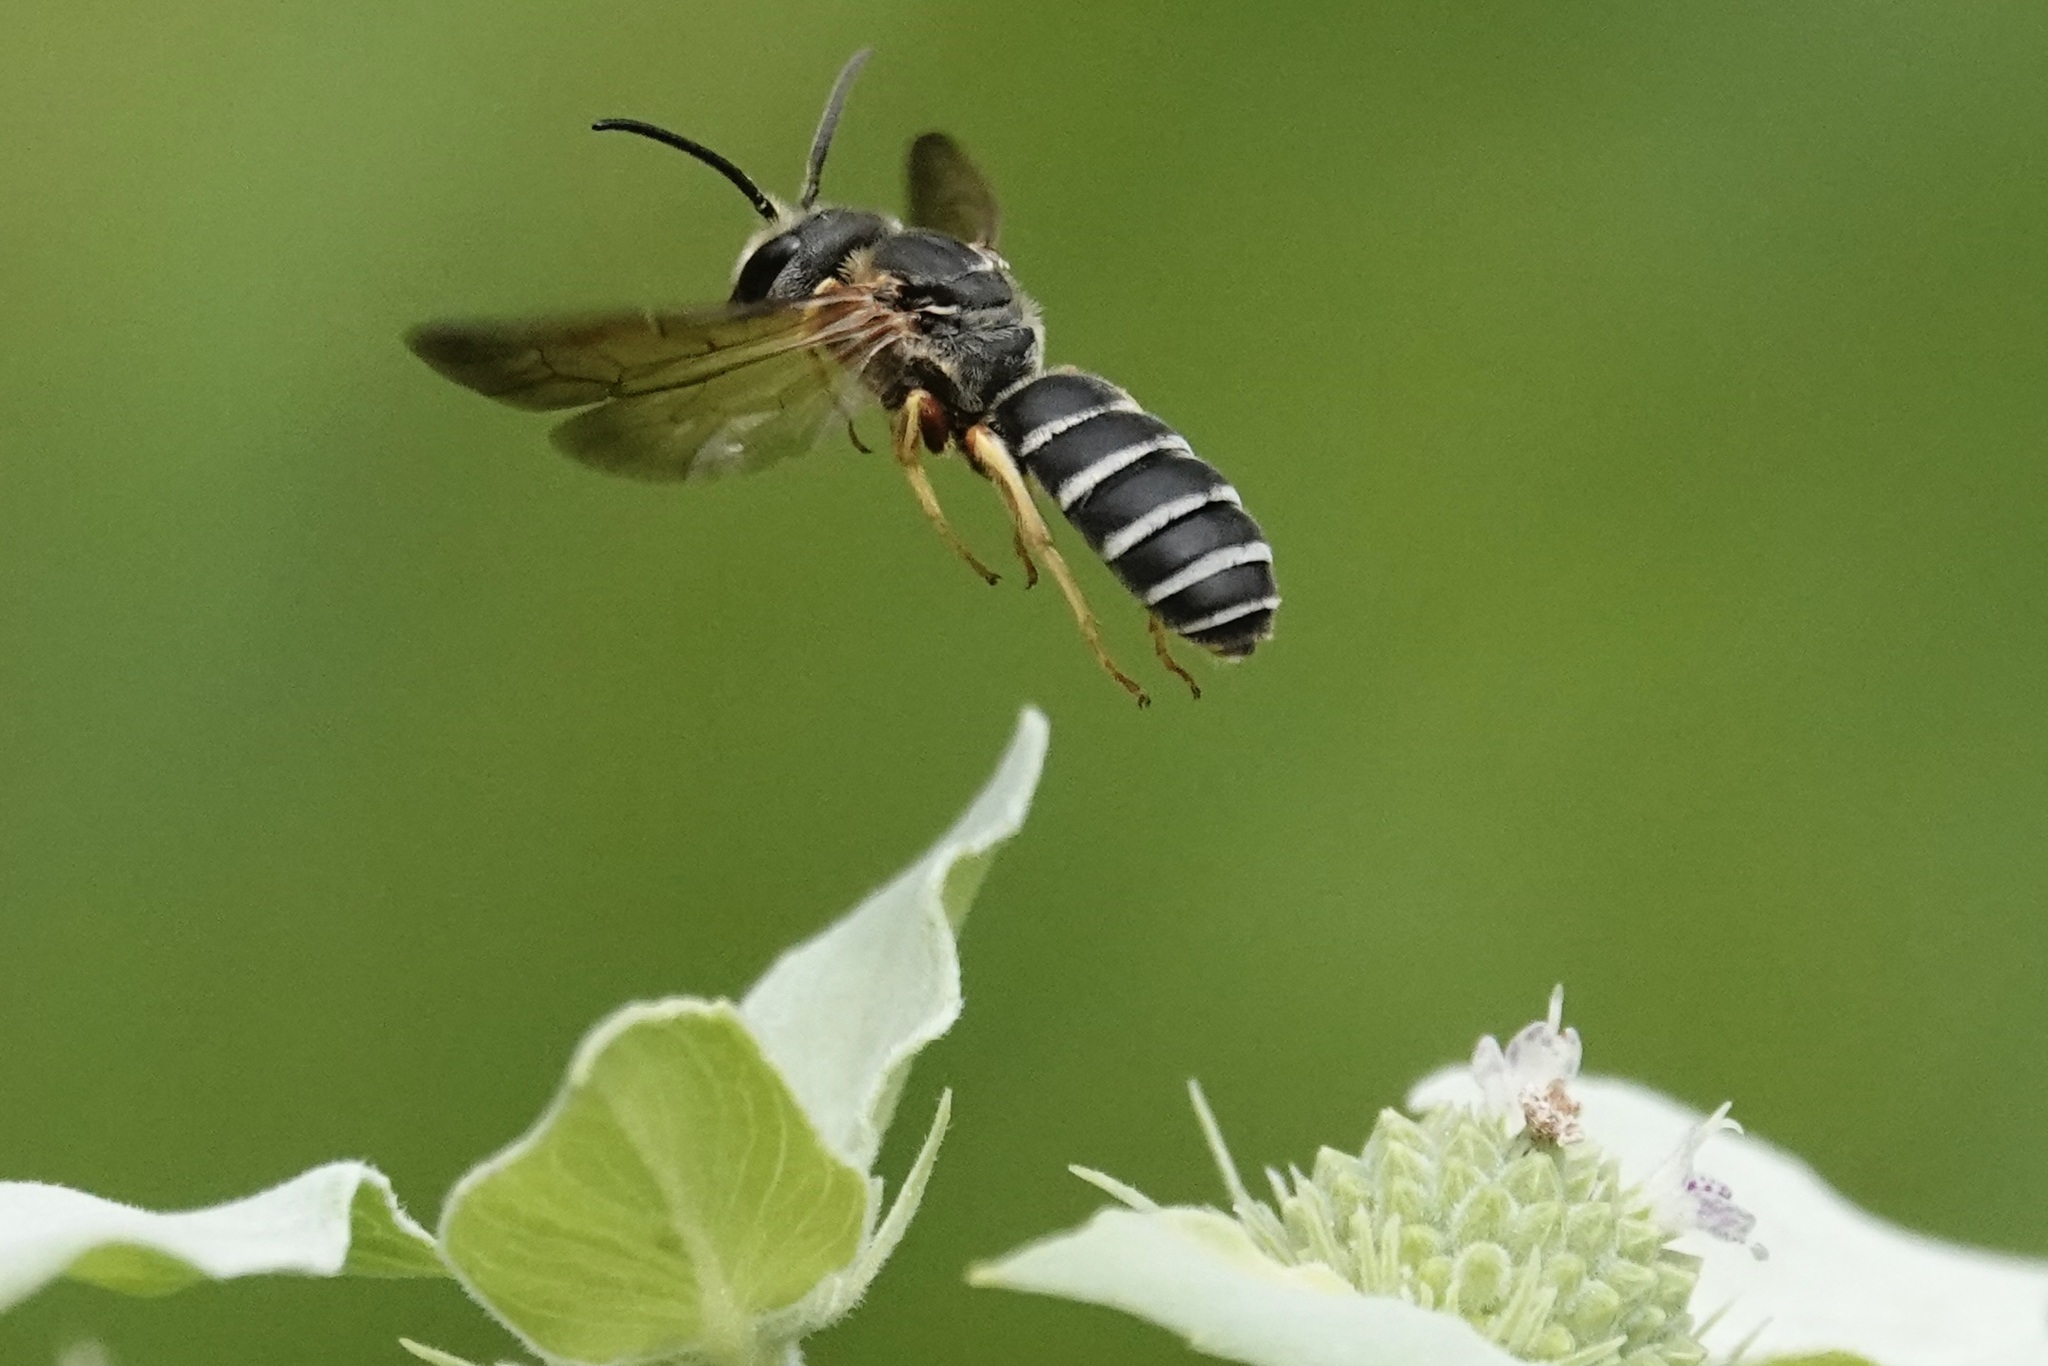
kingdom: Animalia
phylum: Arthropoda
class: Insecta
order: Hymenoptera
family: Halictidae
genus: Halictus
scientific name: Halictus parallelus
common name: Parallel-striped sweat bee
